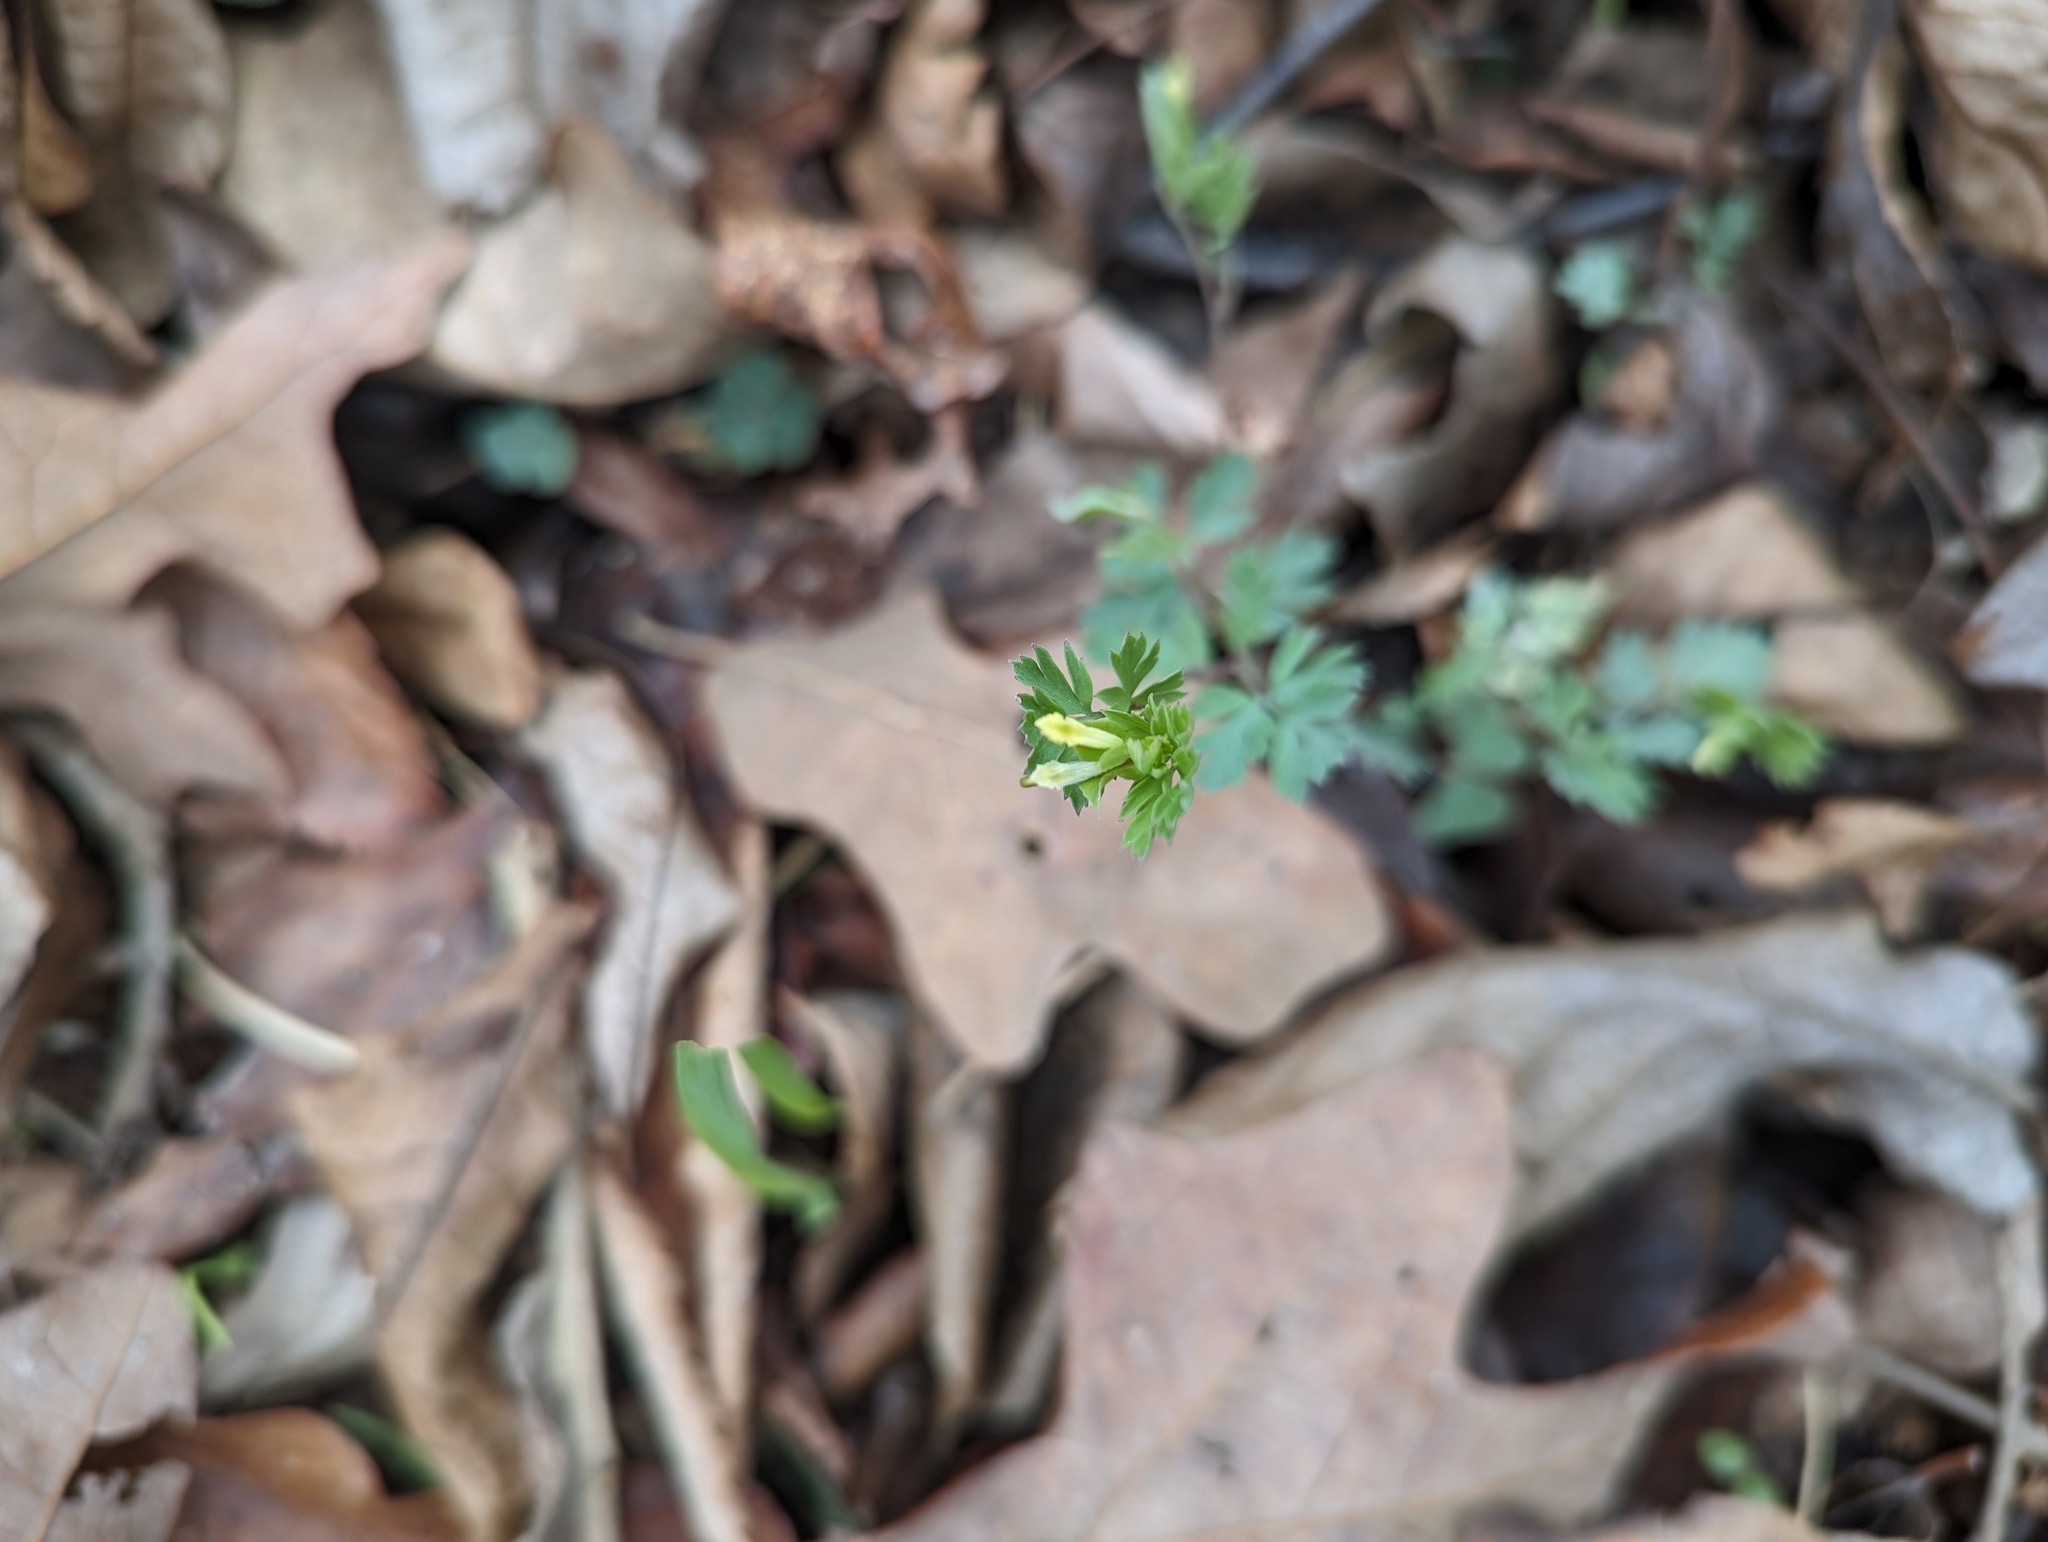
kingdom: Plantae
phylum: Tracheophyta
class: Magnoliopsida
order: Ranunculales
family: Papaveraceae
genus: Corydalis
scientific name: Corydalis flavula
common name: Yellow corydalis
